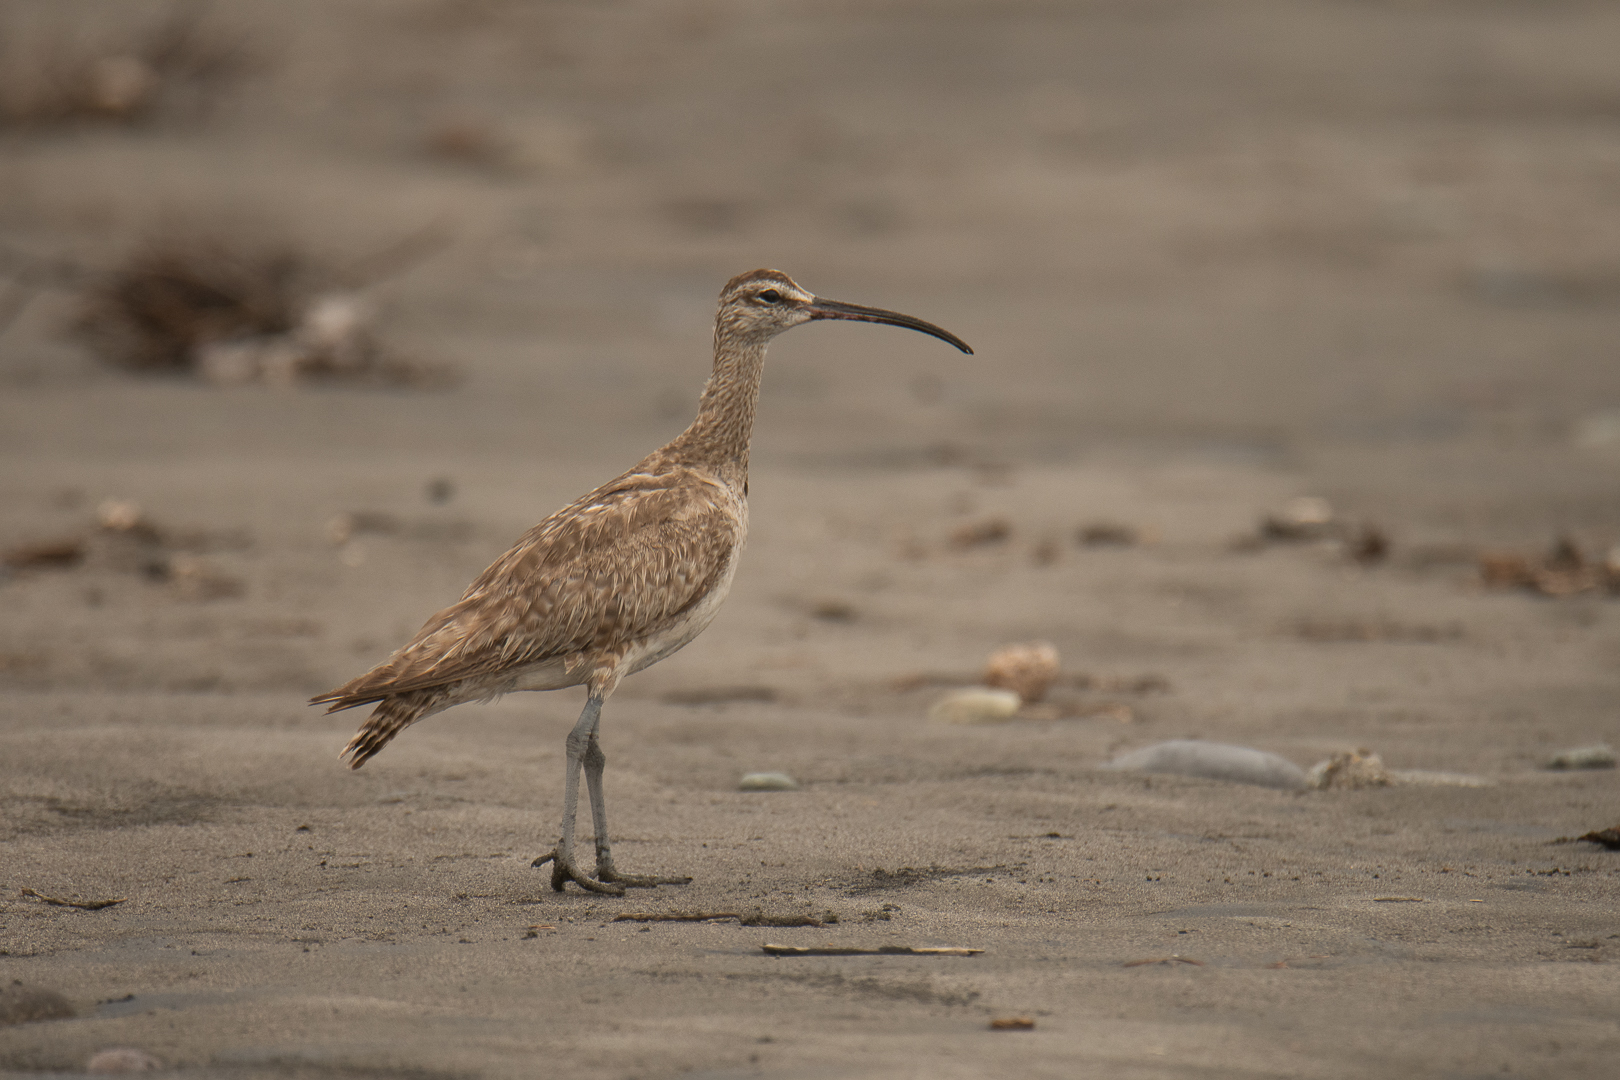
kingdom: Animalia
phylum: Chordata
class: Aves
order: Charadriiformes
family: Scolopacidae
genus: Numenius
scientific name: Numenius phaeopus
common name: Whimbrel
